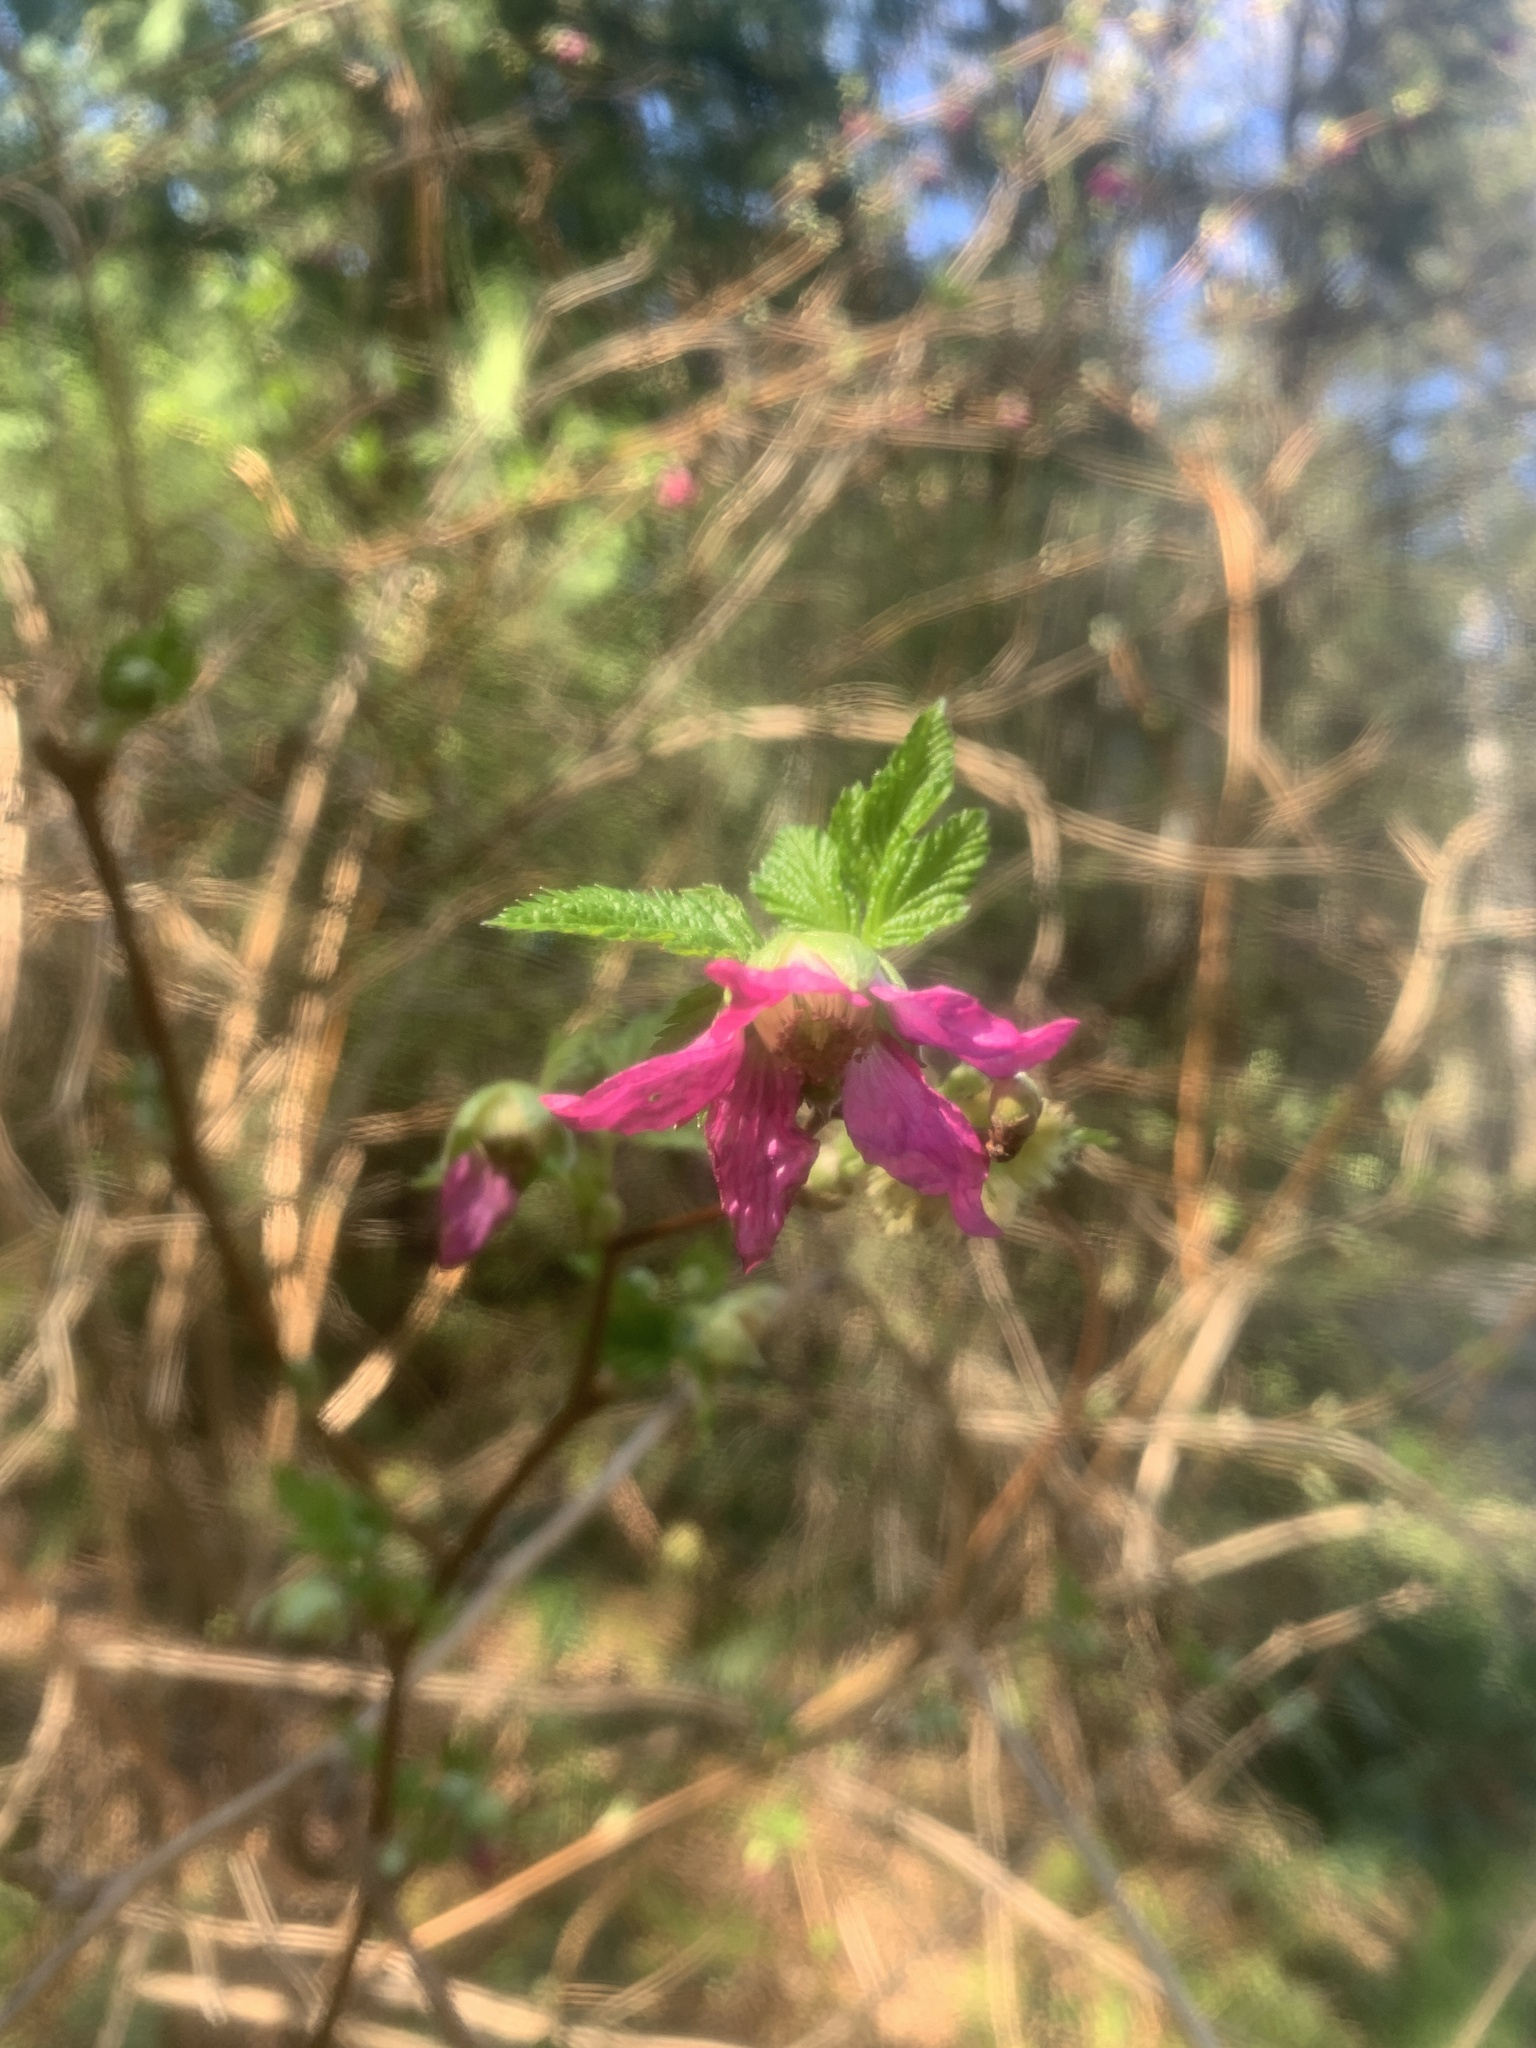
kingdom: Plantae
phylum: Tracheophyta
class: Magnoliopsida
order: Rosales
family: Rosaceae
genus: Rubus
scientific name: Rubus spectabilis
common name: Salmonberry
